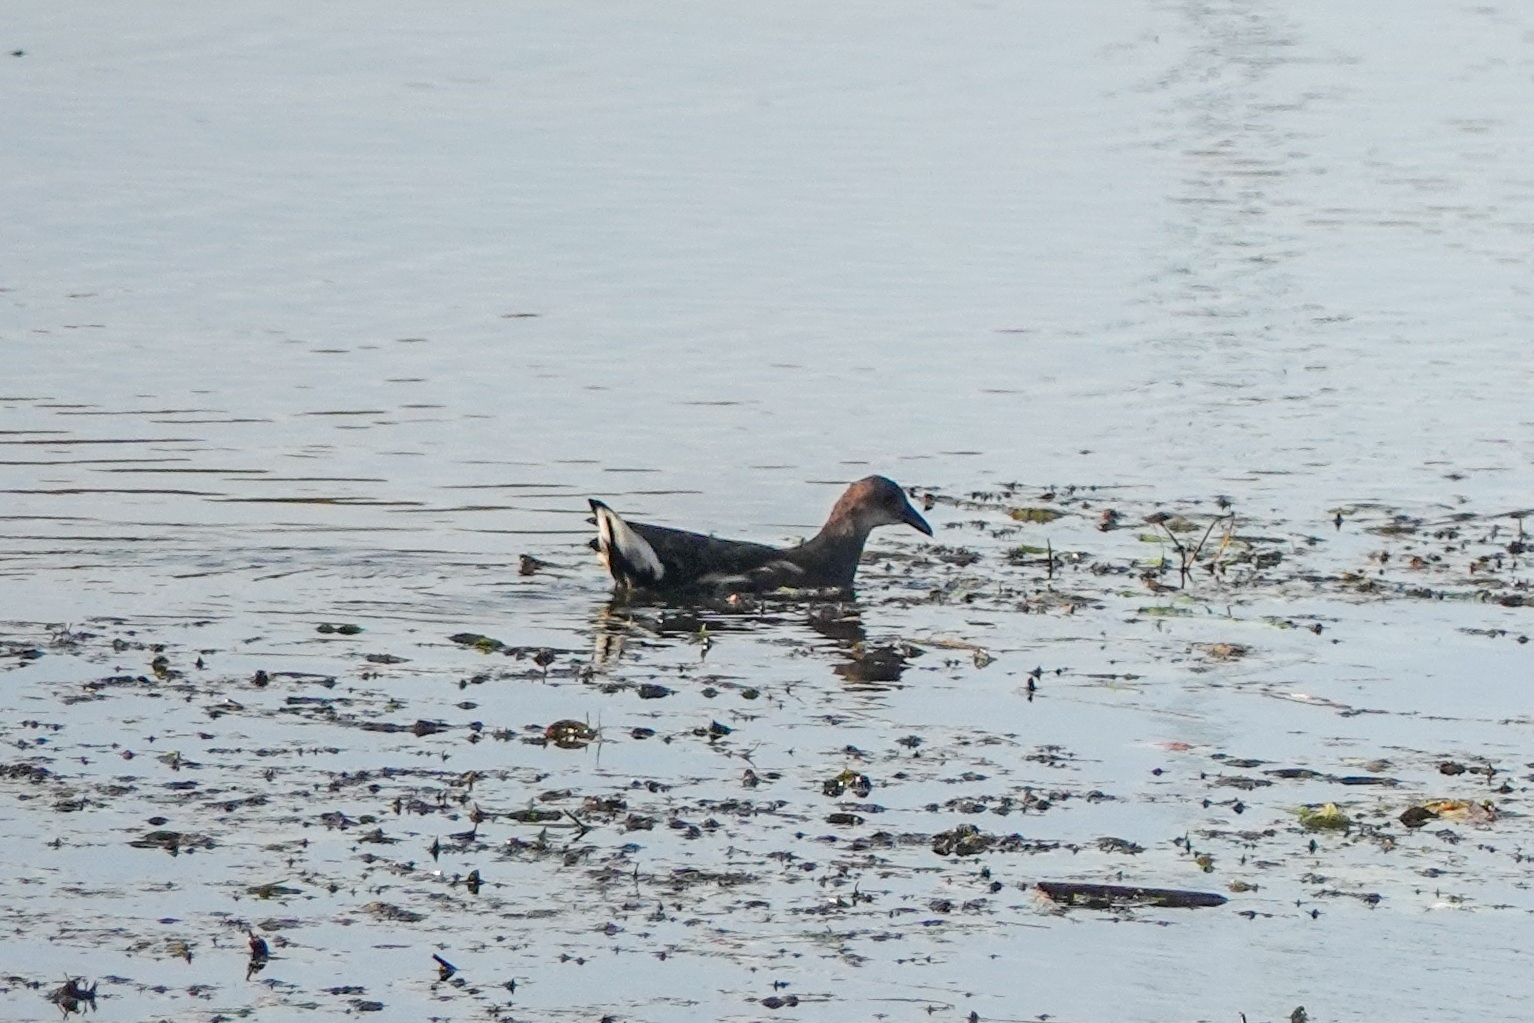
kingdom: Animalia
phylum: Chordata
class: Aves
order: Gruiformes
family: Rallidae
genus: Gallinula
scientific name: Gallinula chloropus
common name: Common moorhen
